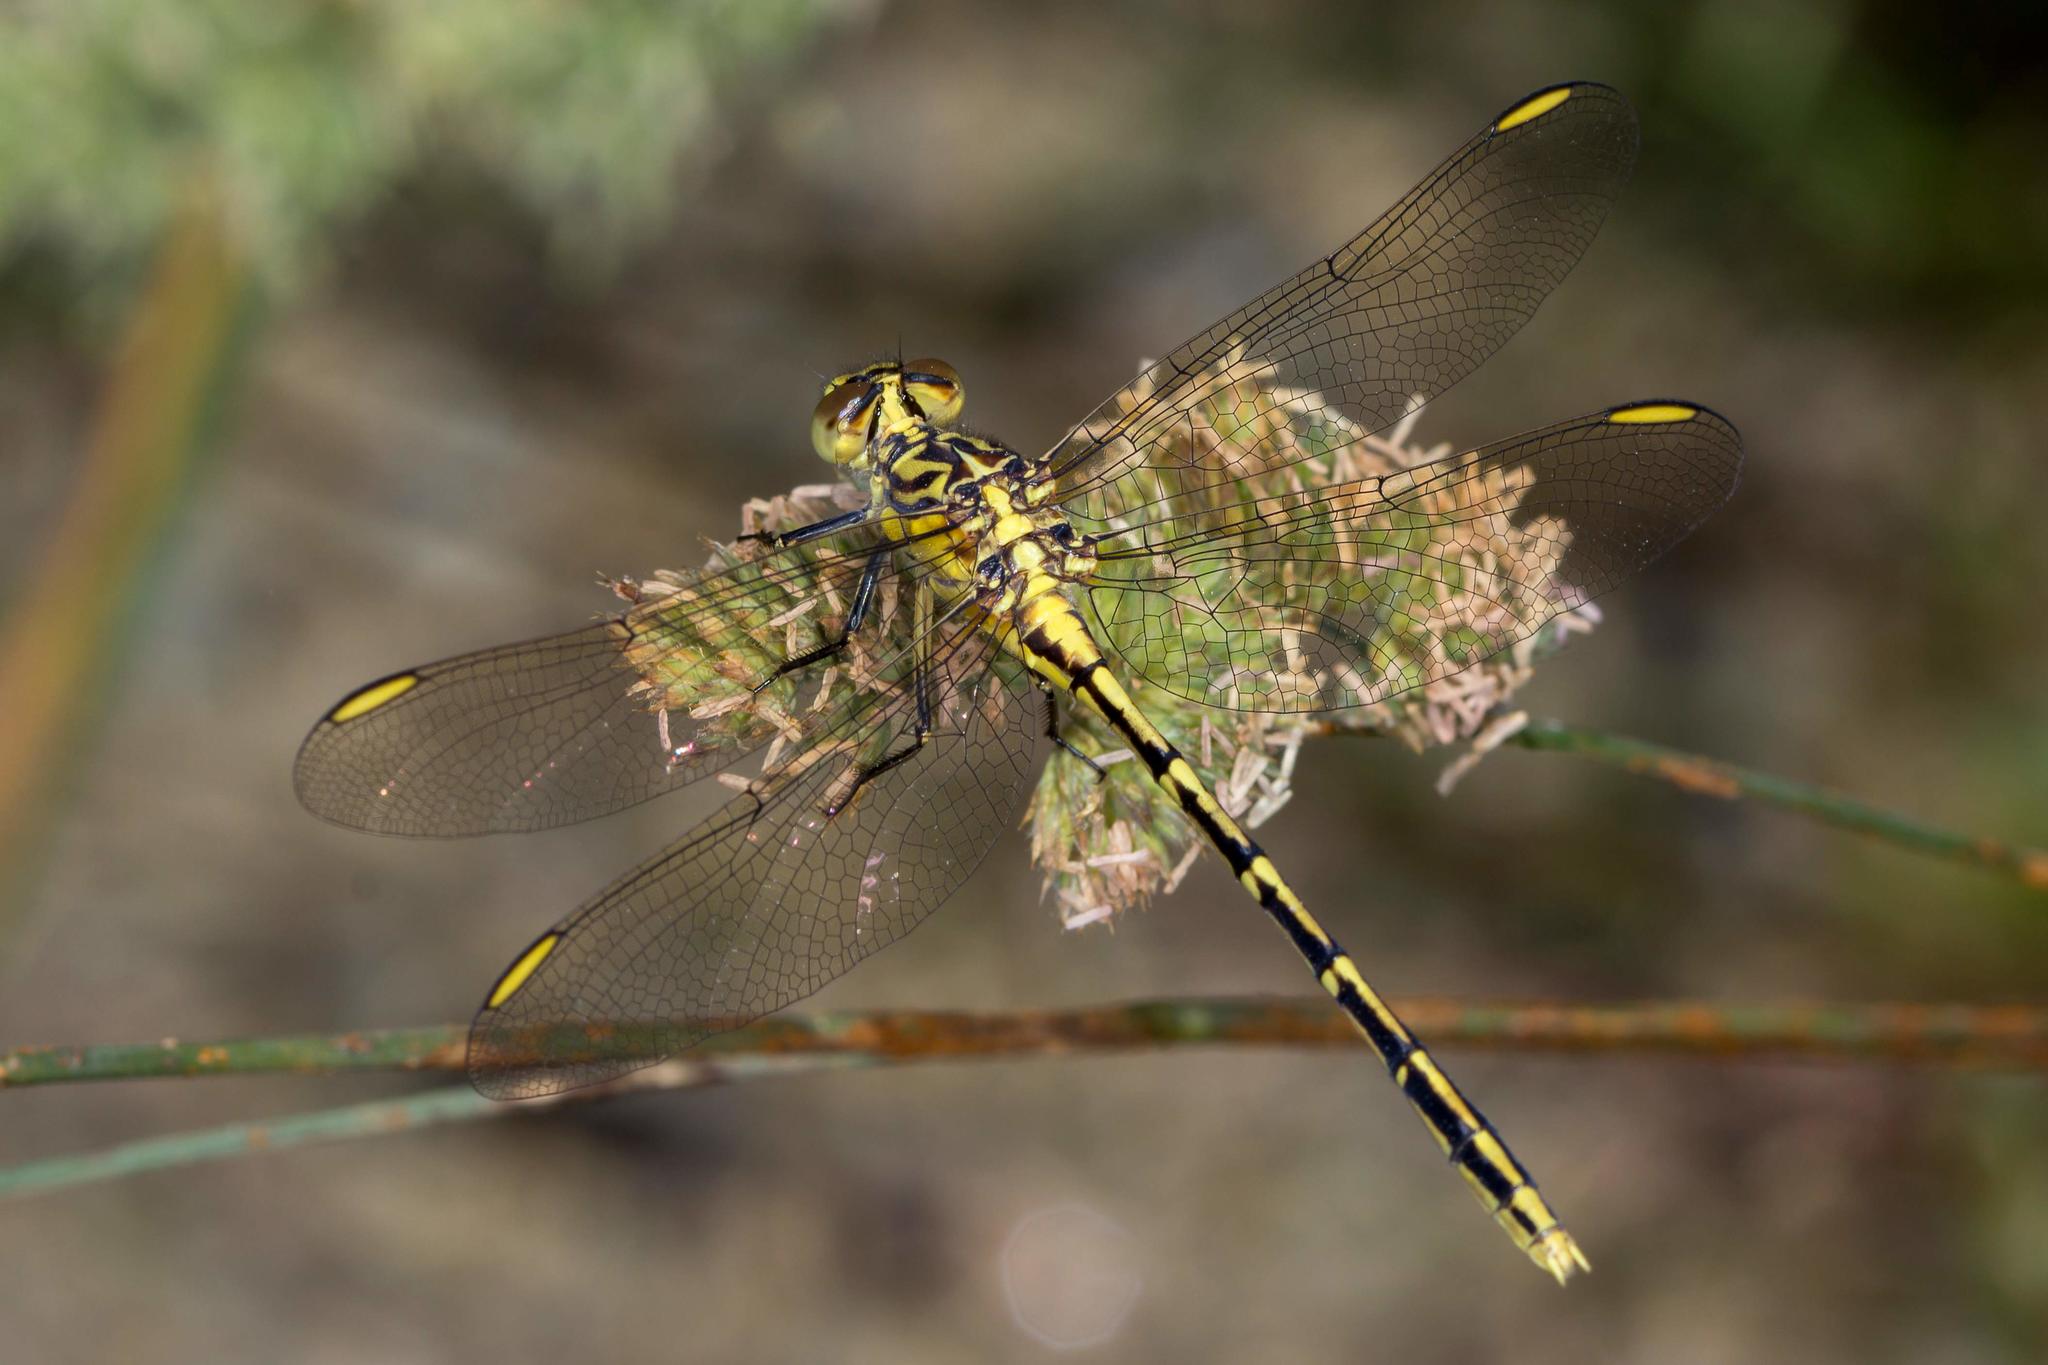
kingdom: Animalia
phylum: Arthropoda
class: Insecta
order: Odonata
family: Gomphidae
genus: Austrogomphus
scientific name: Austrogomphus guerini
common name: Yellow-striped hunter
